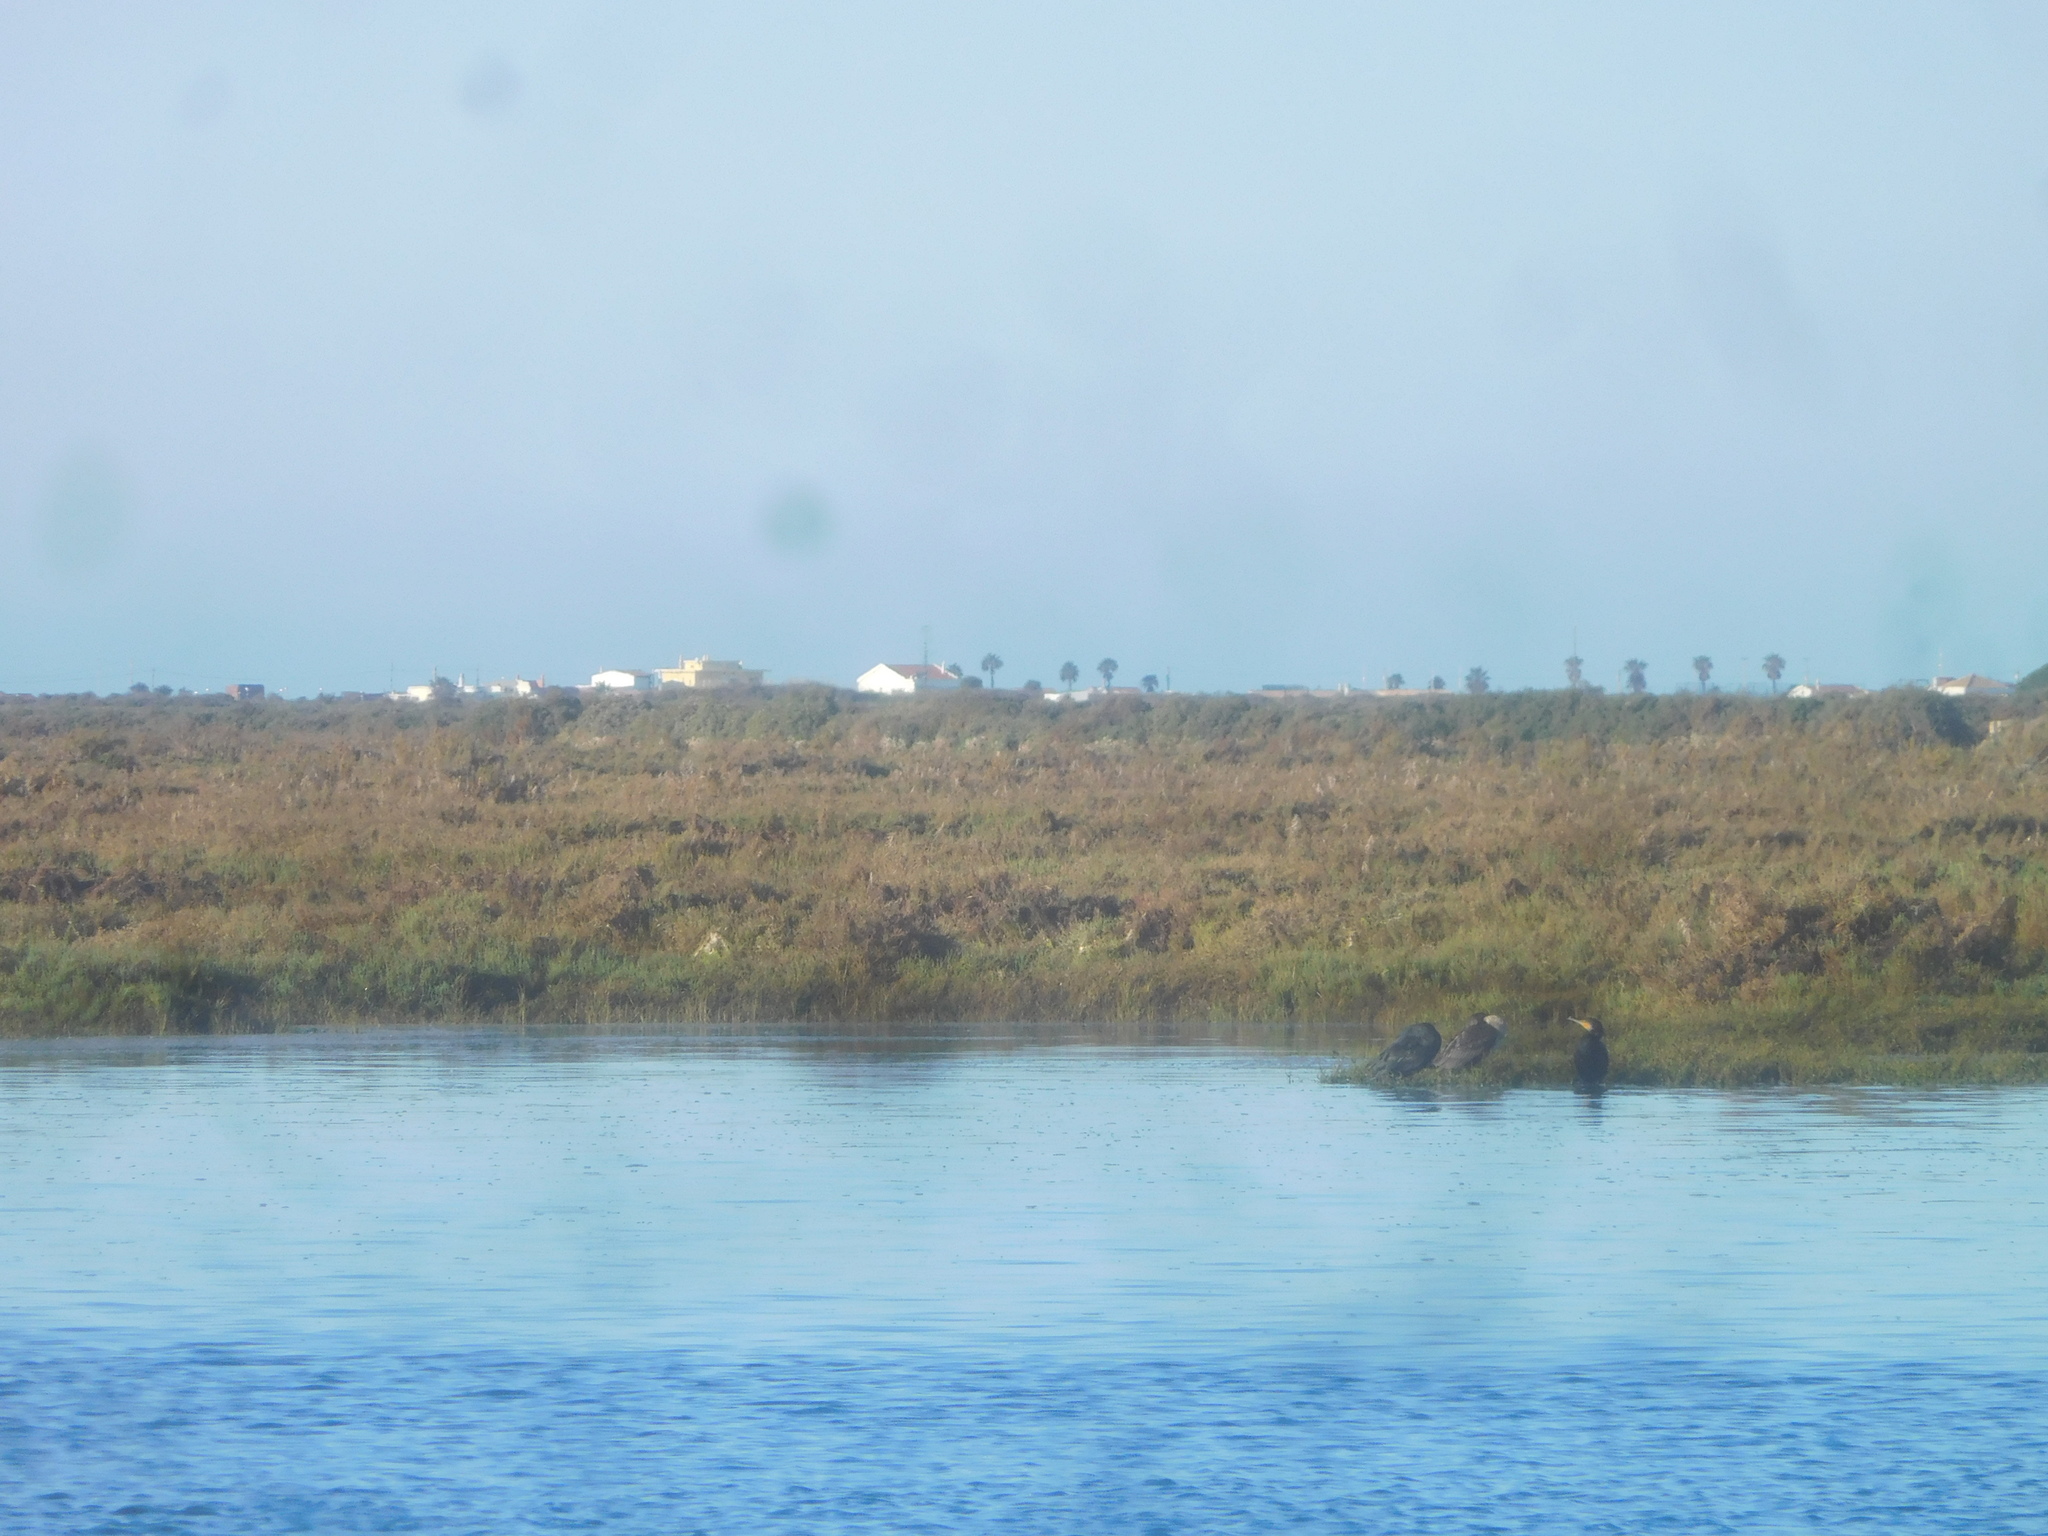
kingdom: Animalia
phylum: Chordata
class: Aves
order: Suliformes
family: Phalacrocoracidae
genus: Phalacrocorax
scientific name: Phalacrocorax carbo
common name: Great cormorant
